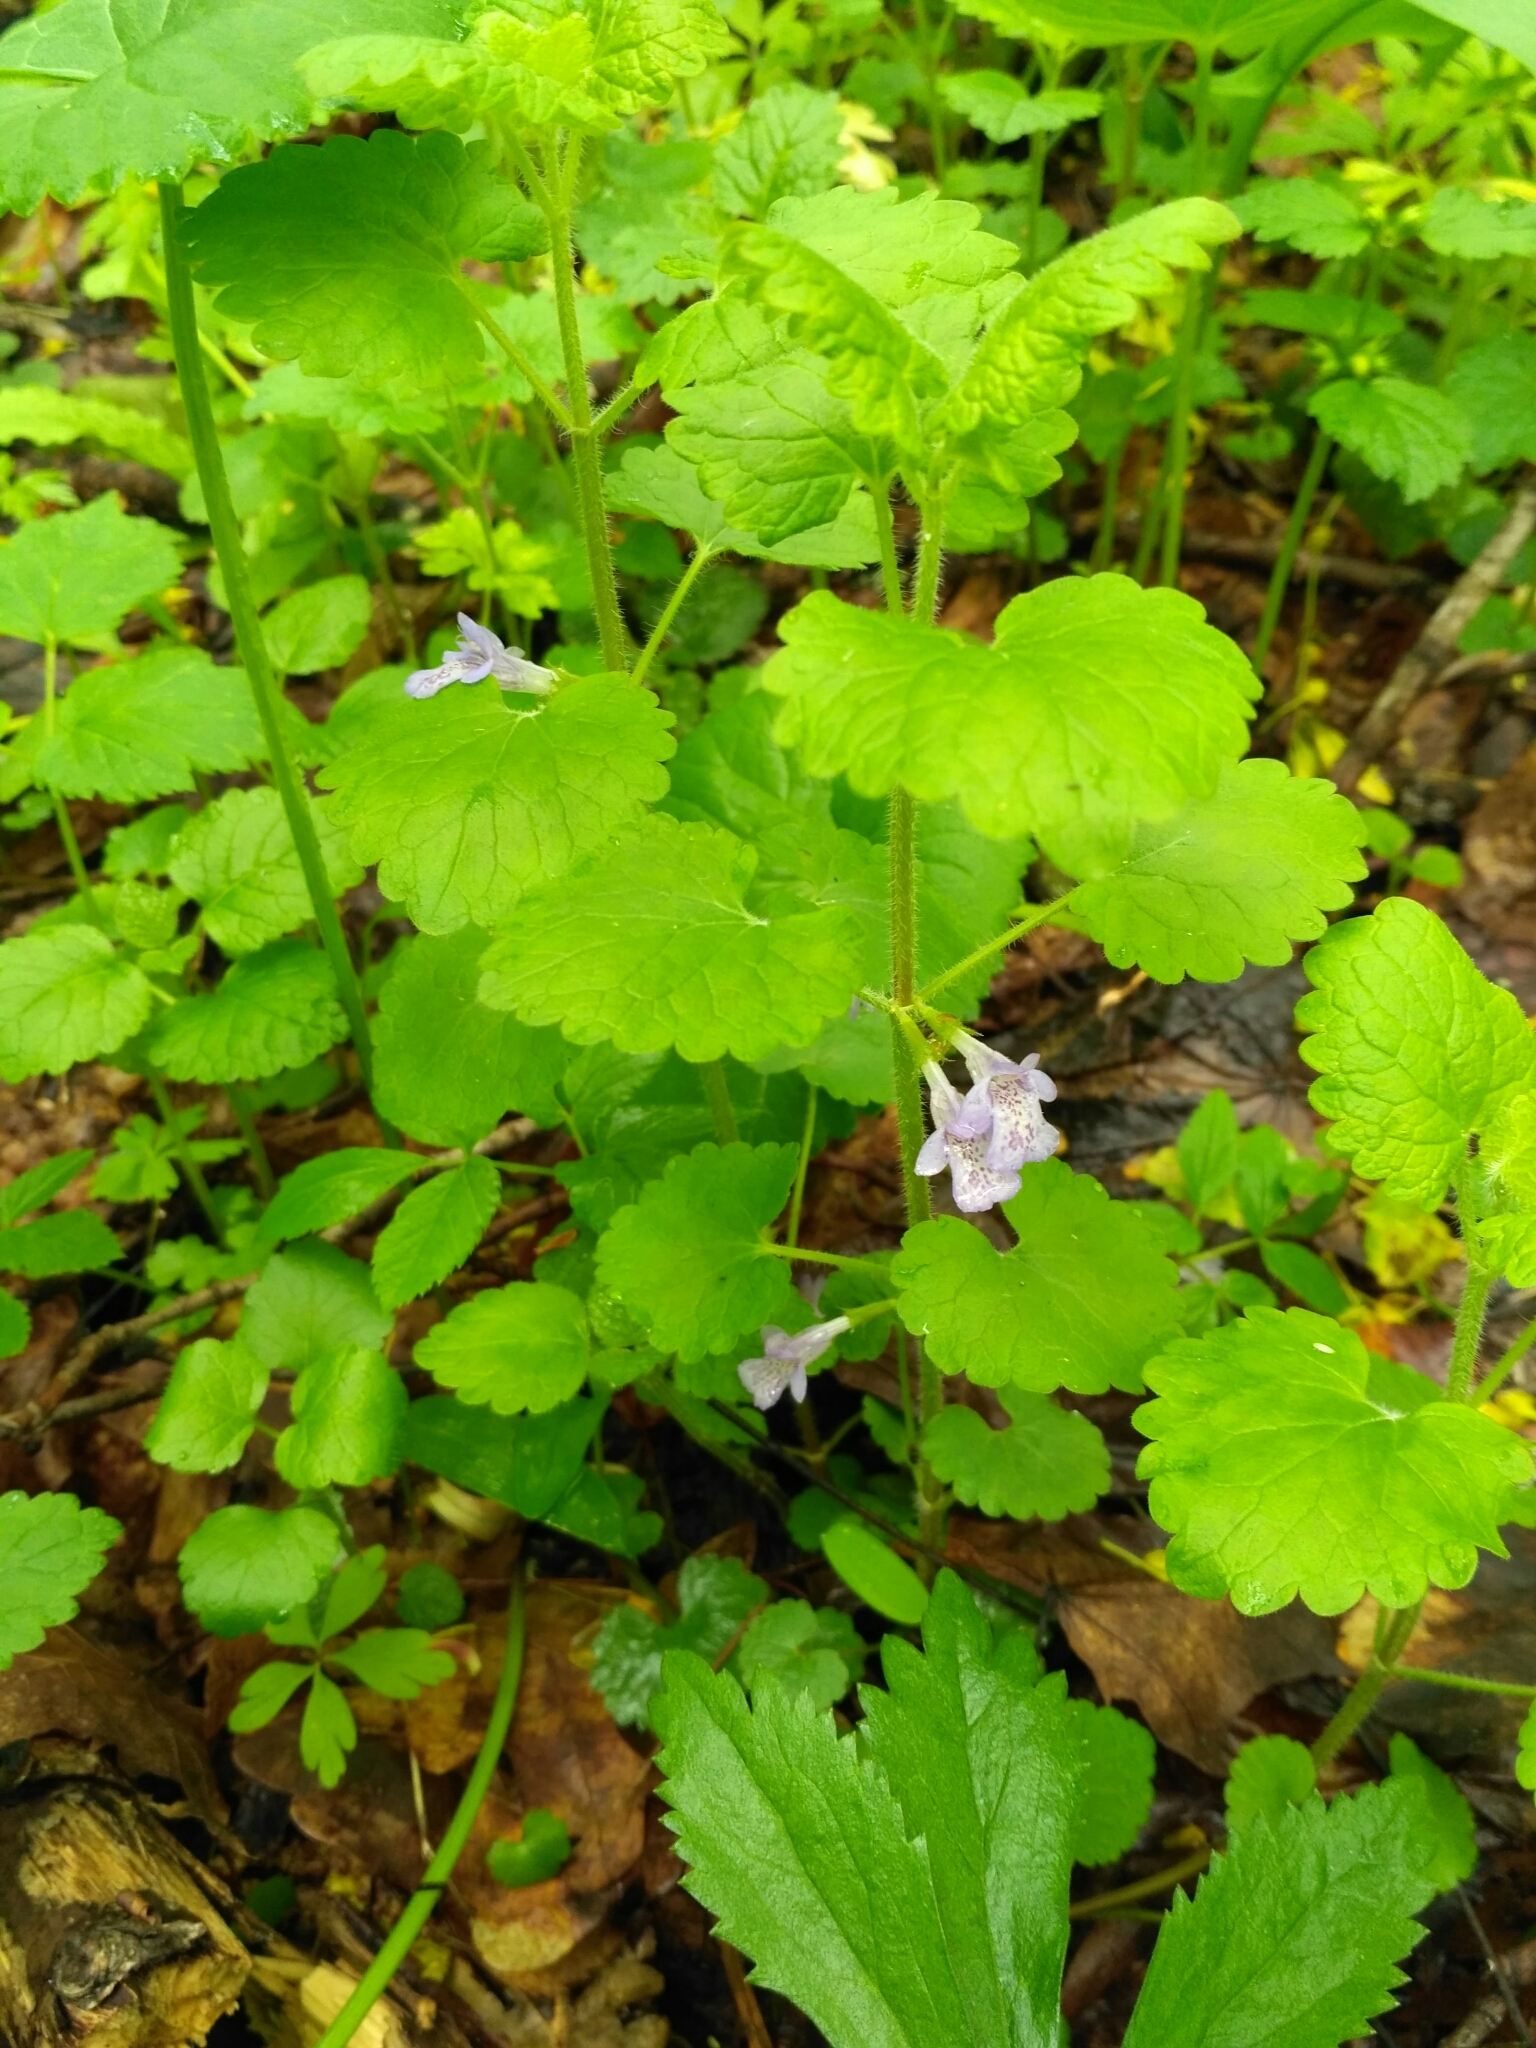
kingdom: Plantae
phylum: Tracheophyta
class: Magnoliopsida
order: Lamiales
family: Lamiaceae
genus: Glechoma
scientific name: Glechoma hederacea
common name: Ground ivy
